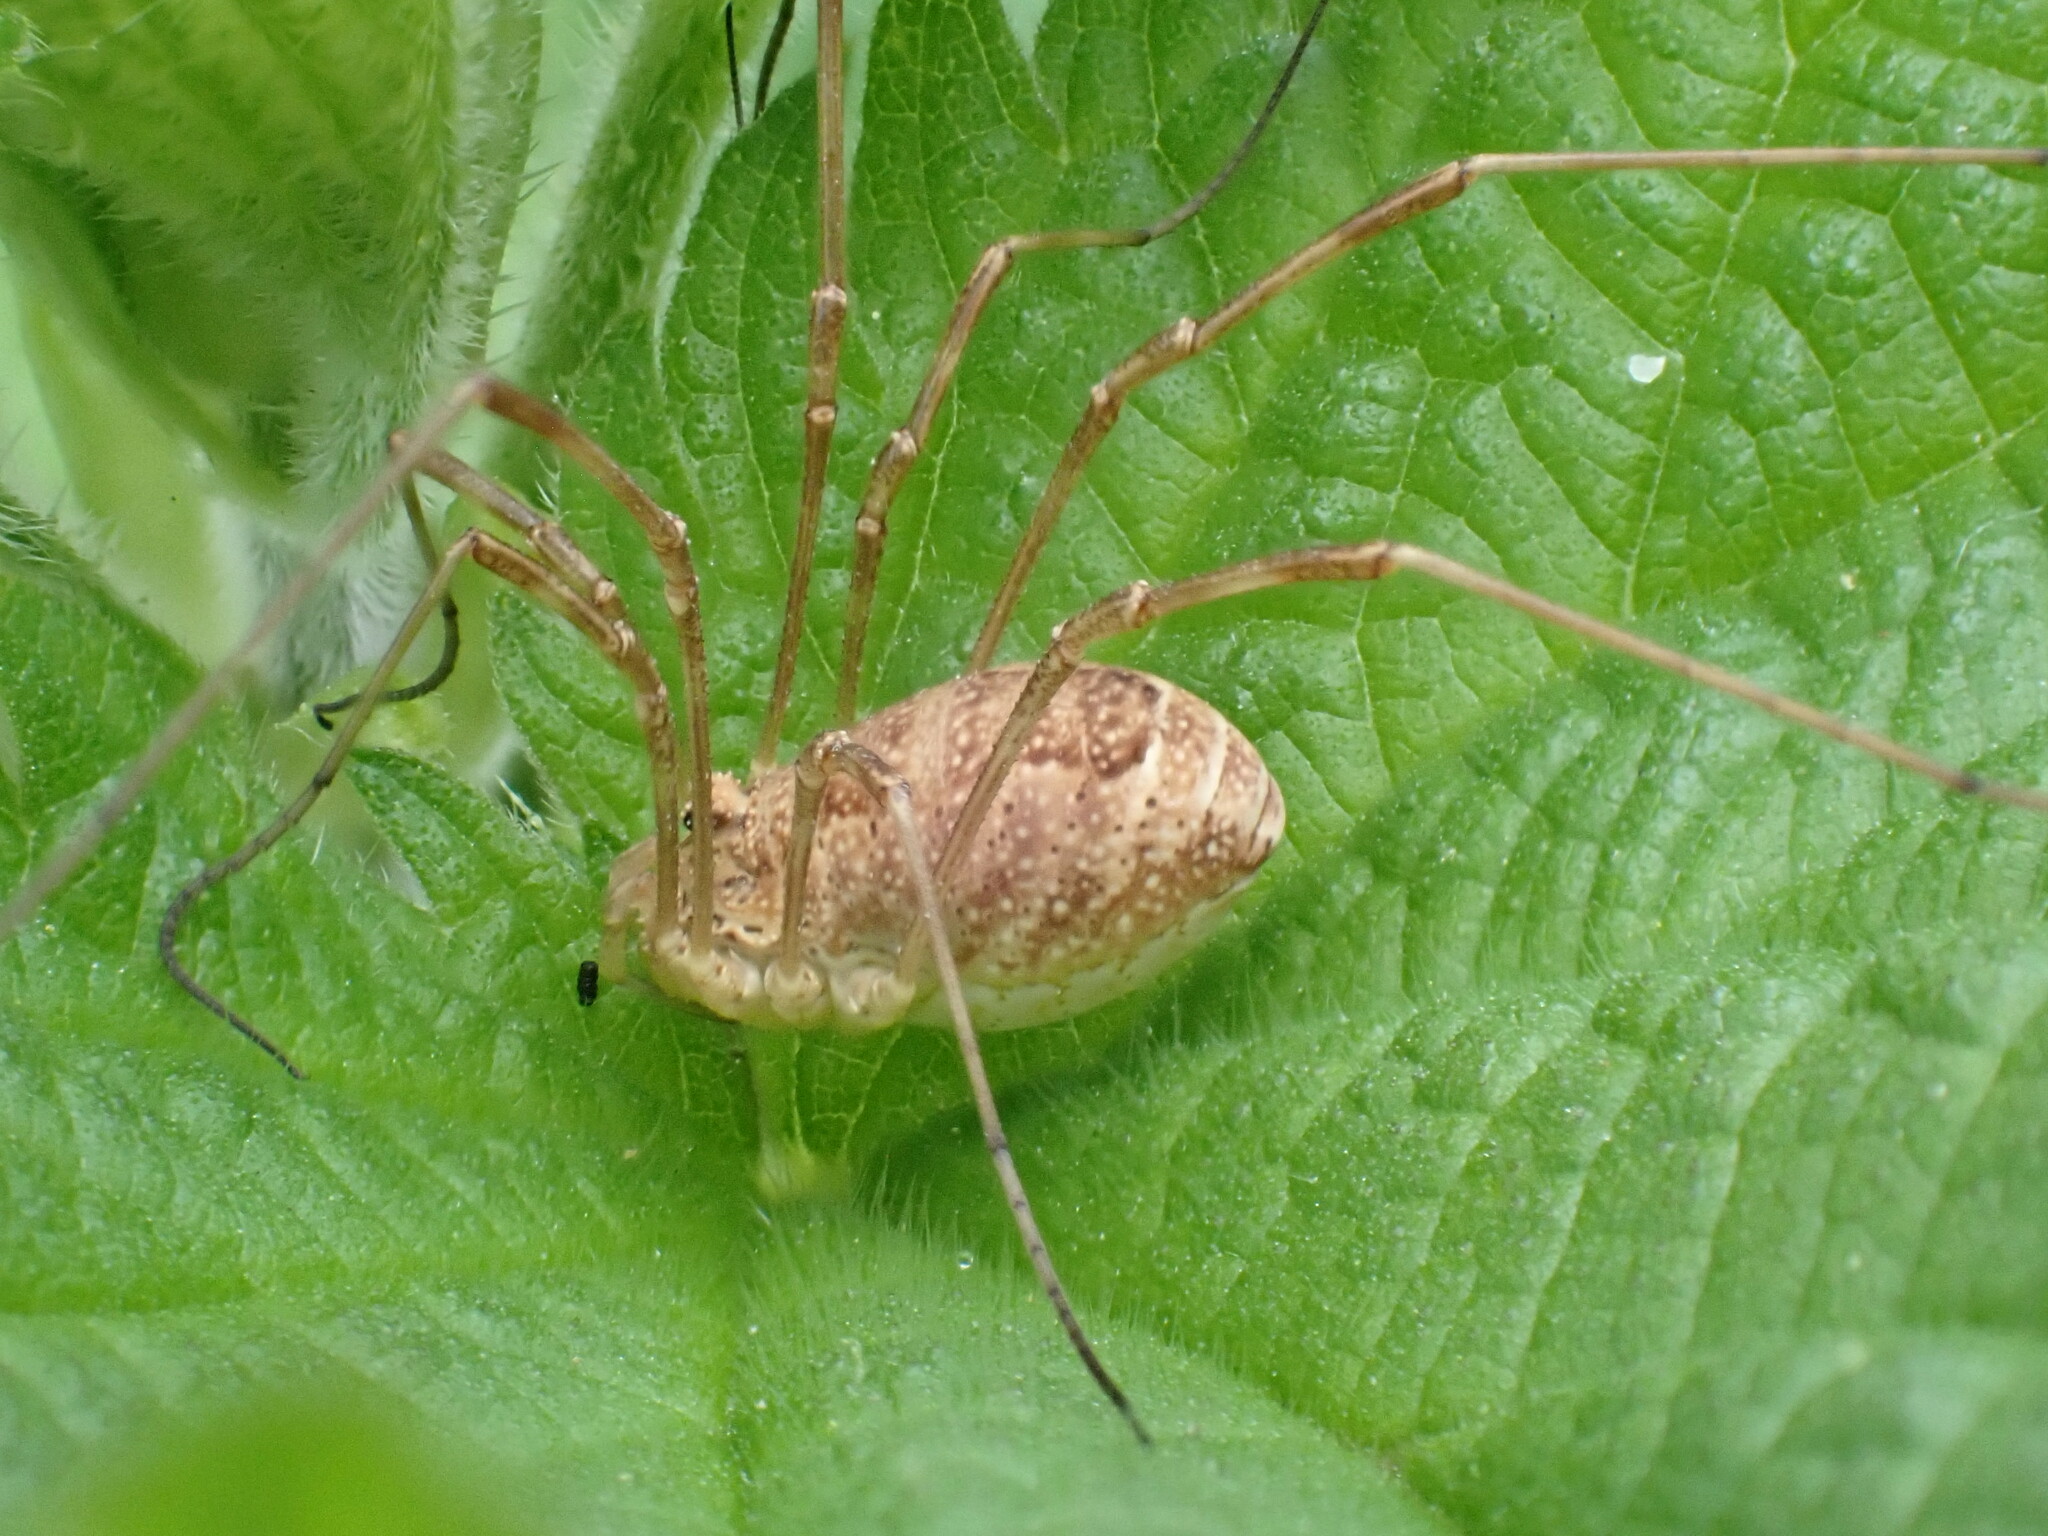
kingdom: Animalia
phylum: Arthropoda
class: Arachnida
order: Opiliones
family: Phalangiidae
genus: Rilaena
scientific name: Rilaena triangularis
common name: Spring harvestman
